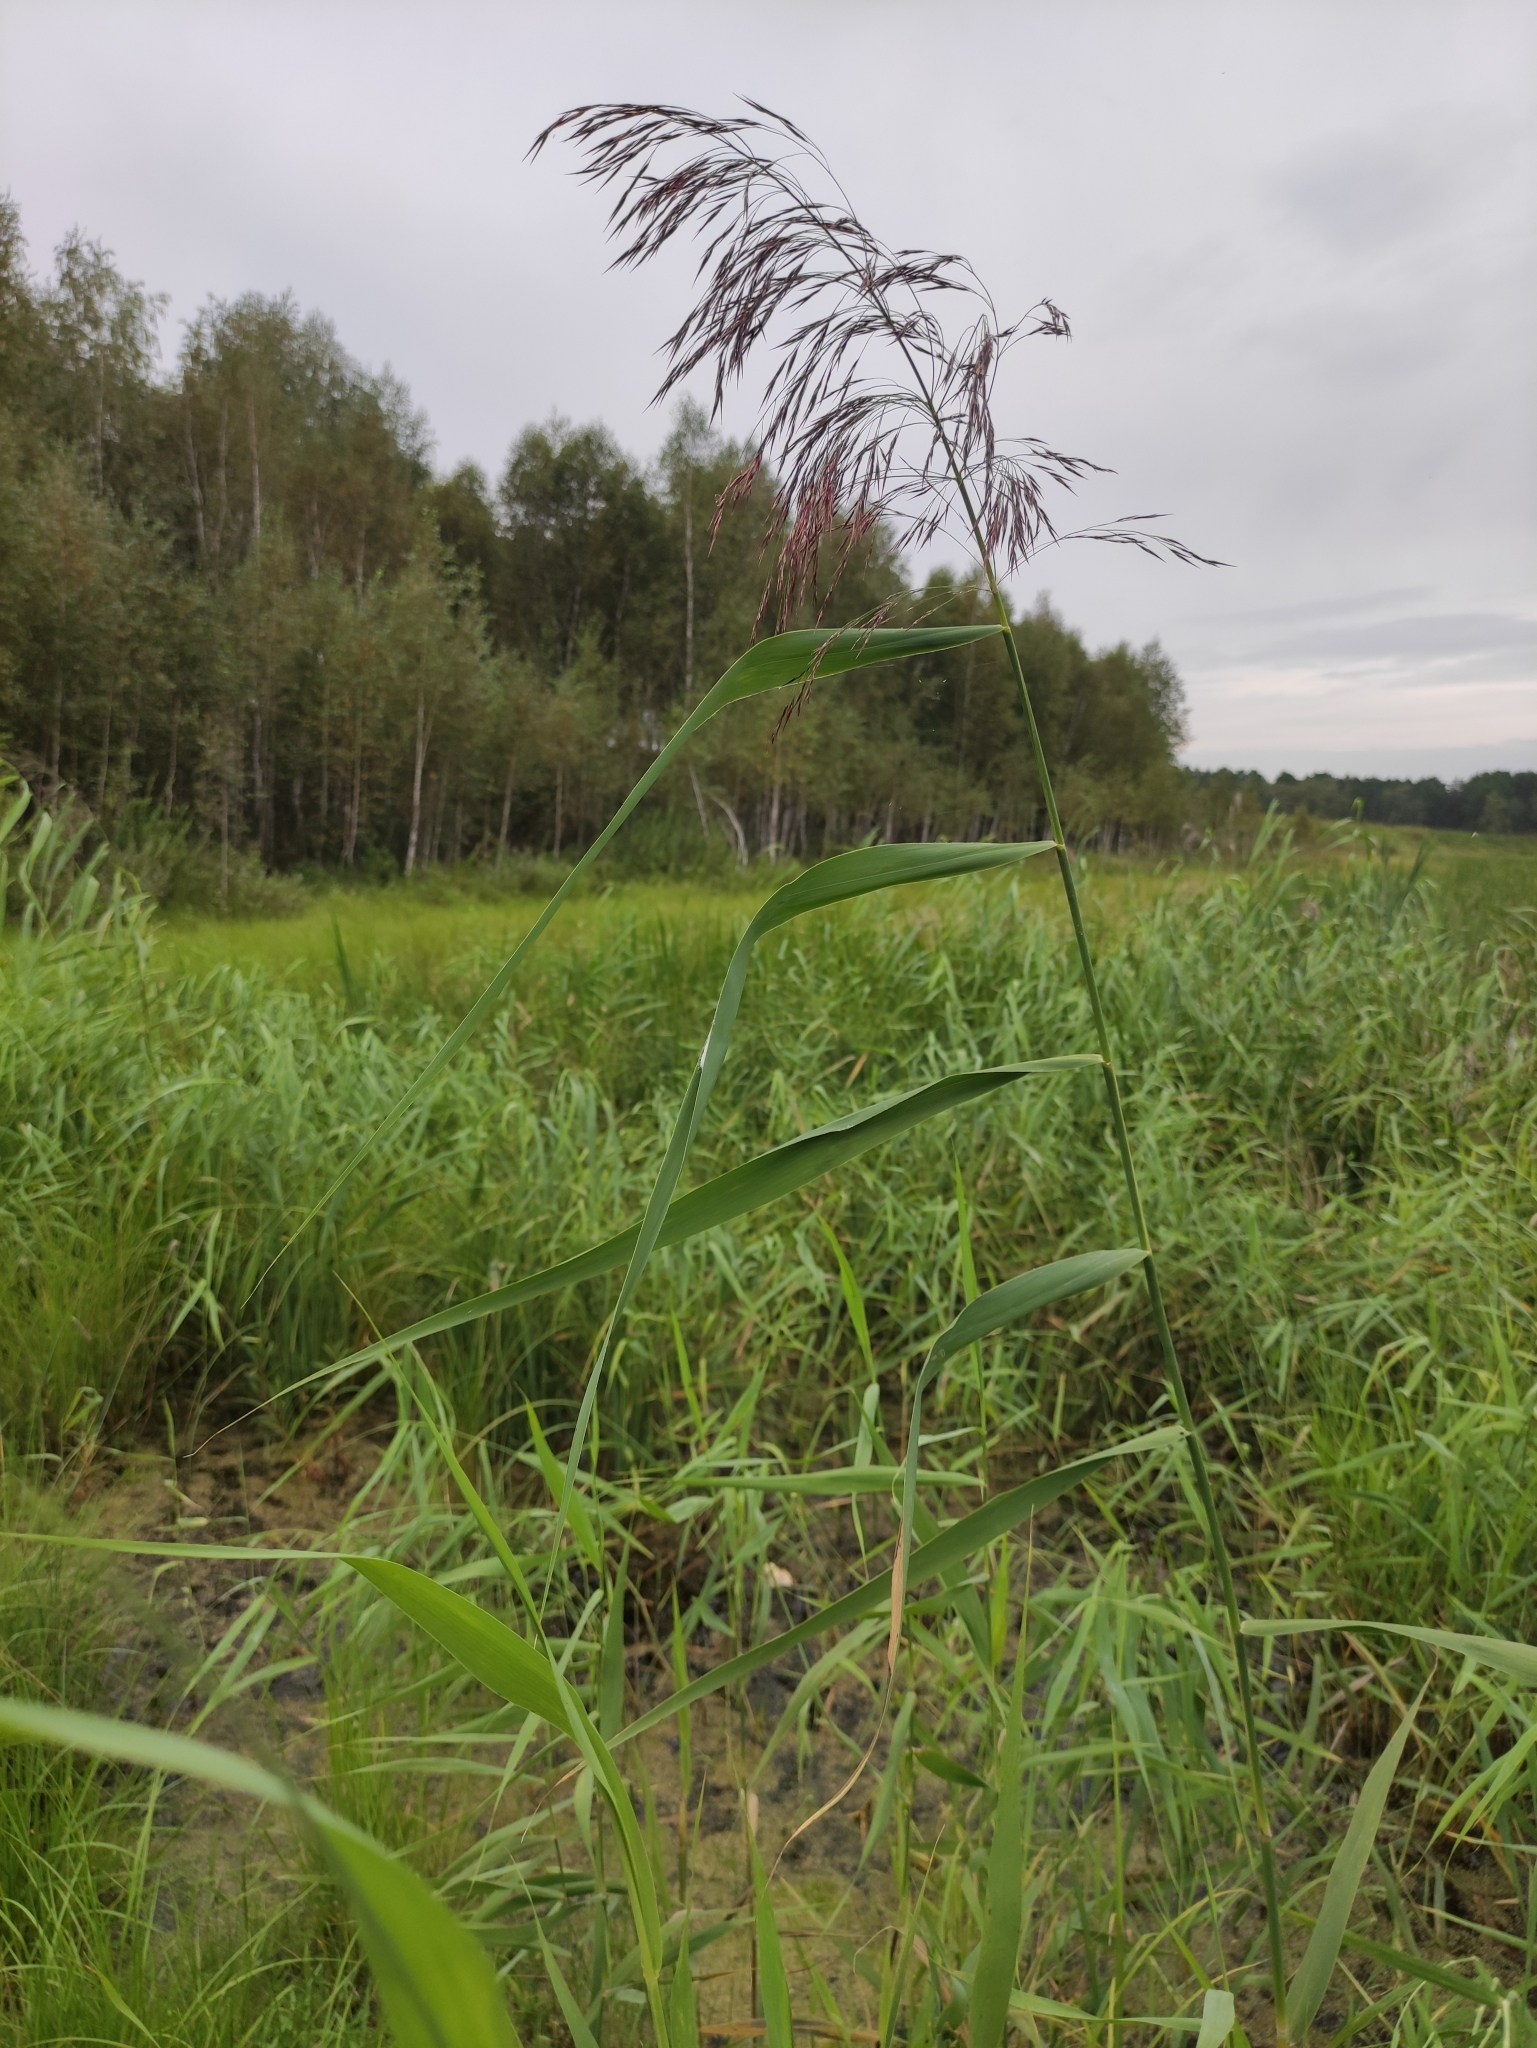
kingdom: Plantae
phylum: Tracheophyta
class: Liliopsida
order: Poales
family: Poaceae
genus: Phragmites
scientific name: Phragmites australis
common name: Common reed
